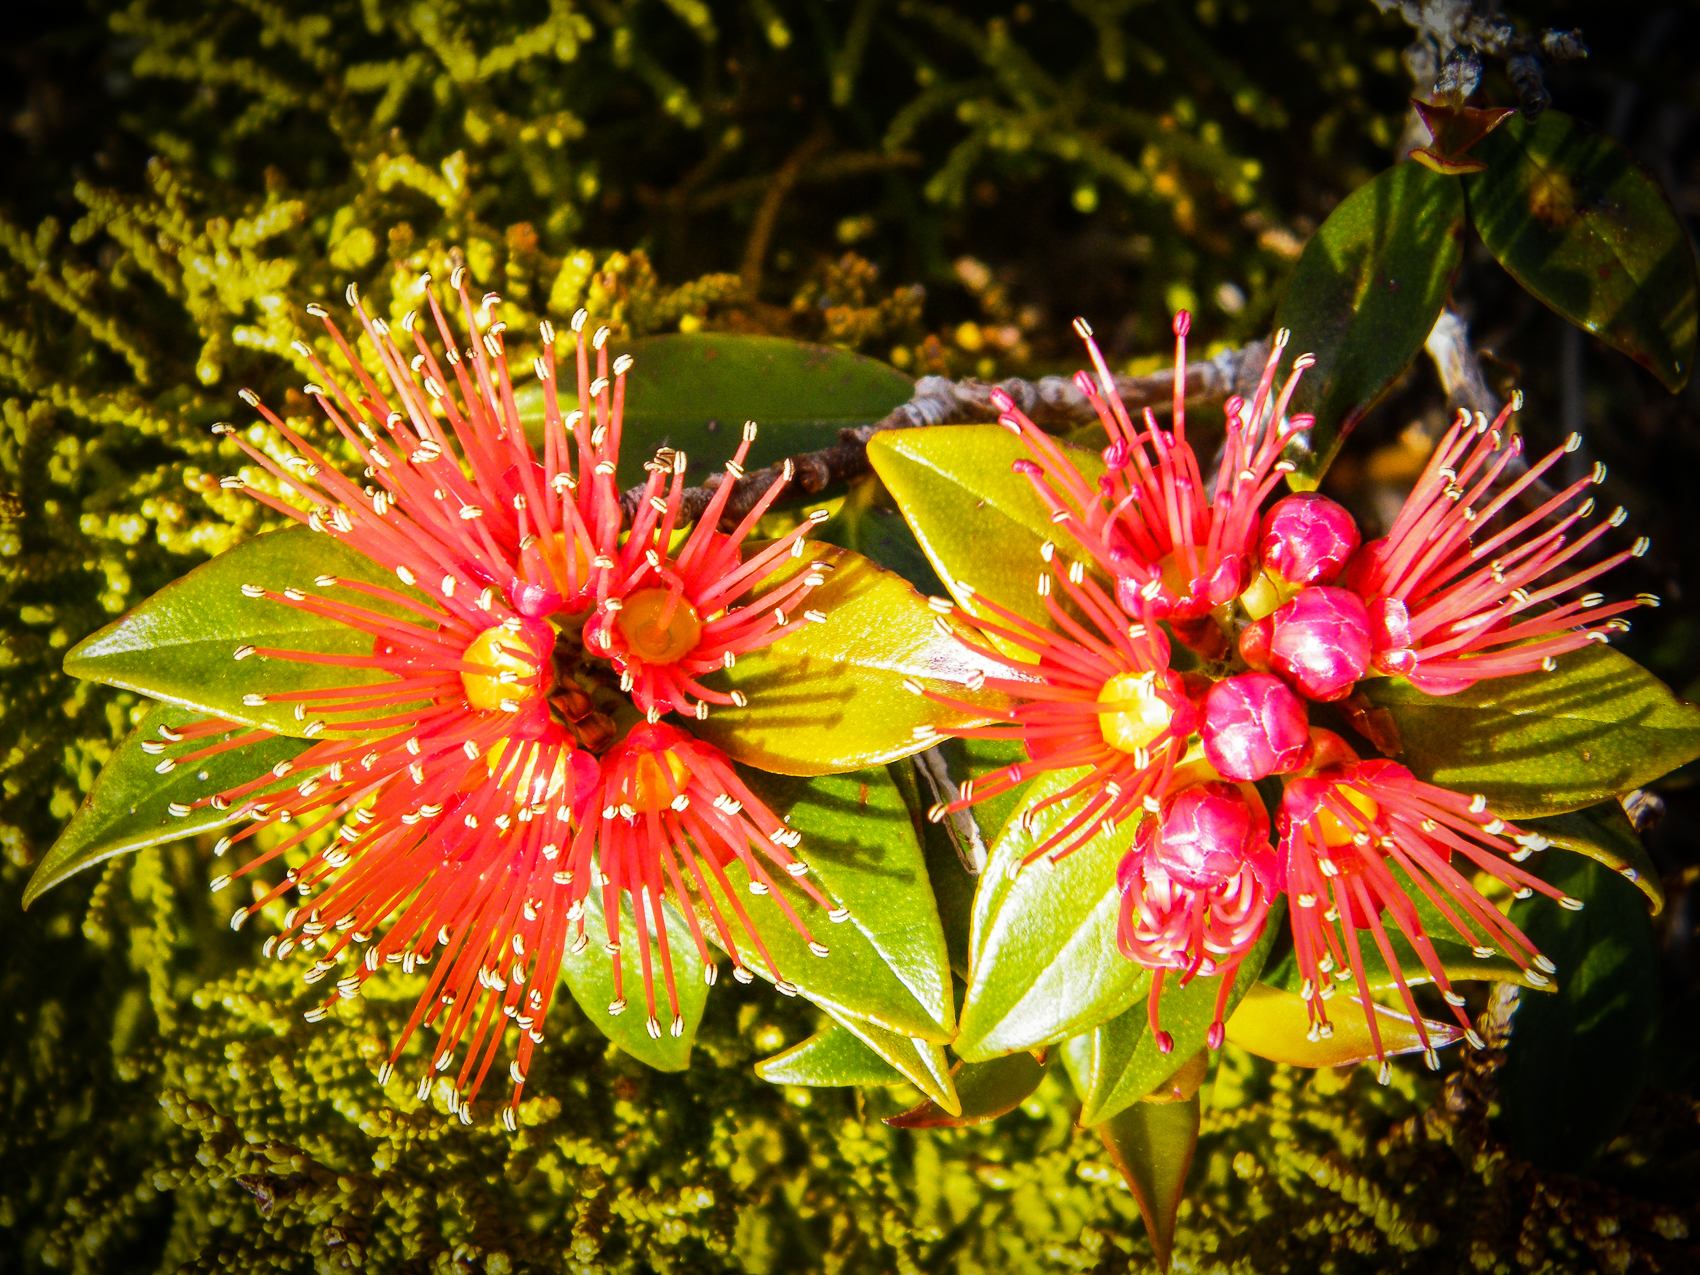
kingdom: Plantae
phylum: Tracheophyta
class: Magnoliopsida
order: Myrtales
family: Myrtaceae
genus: Metrosideros
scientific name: Metrosideros umbellata
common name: Southern rata
